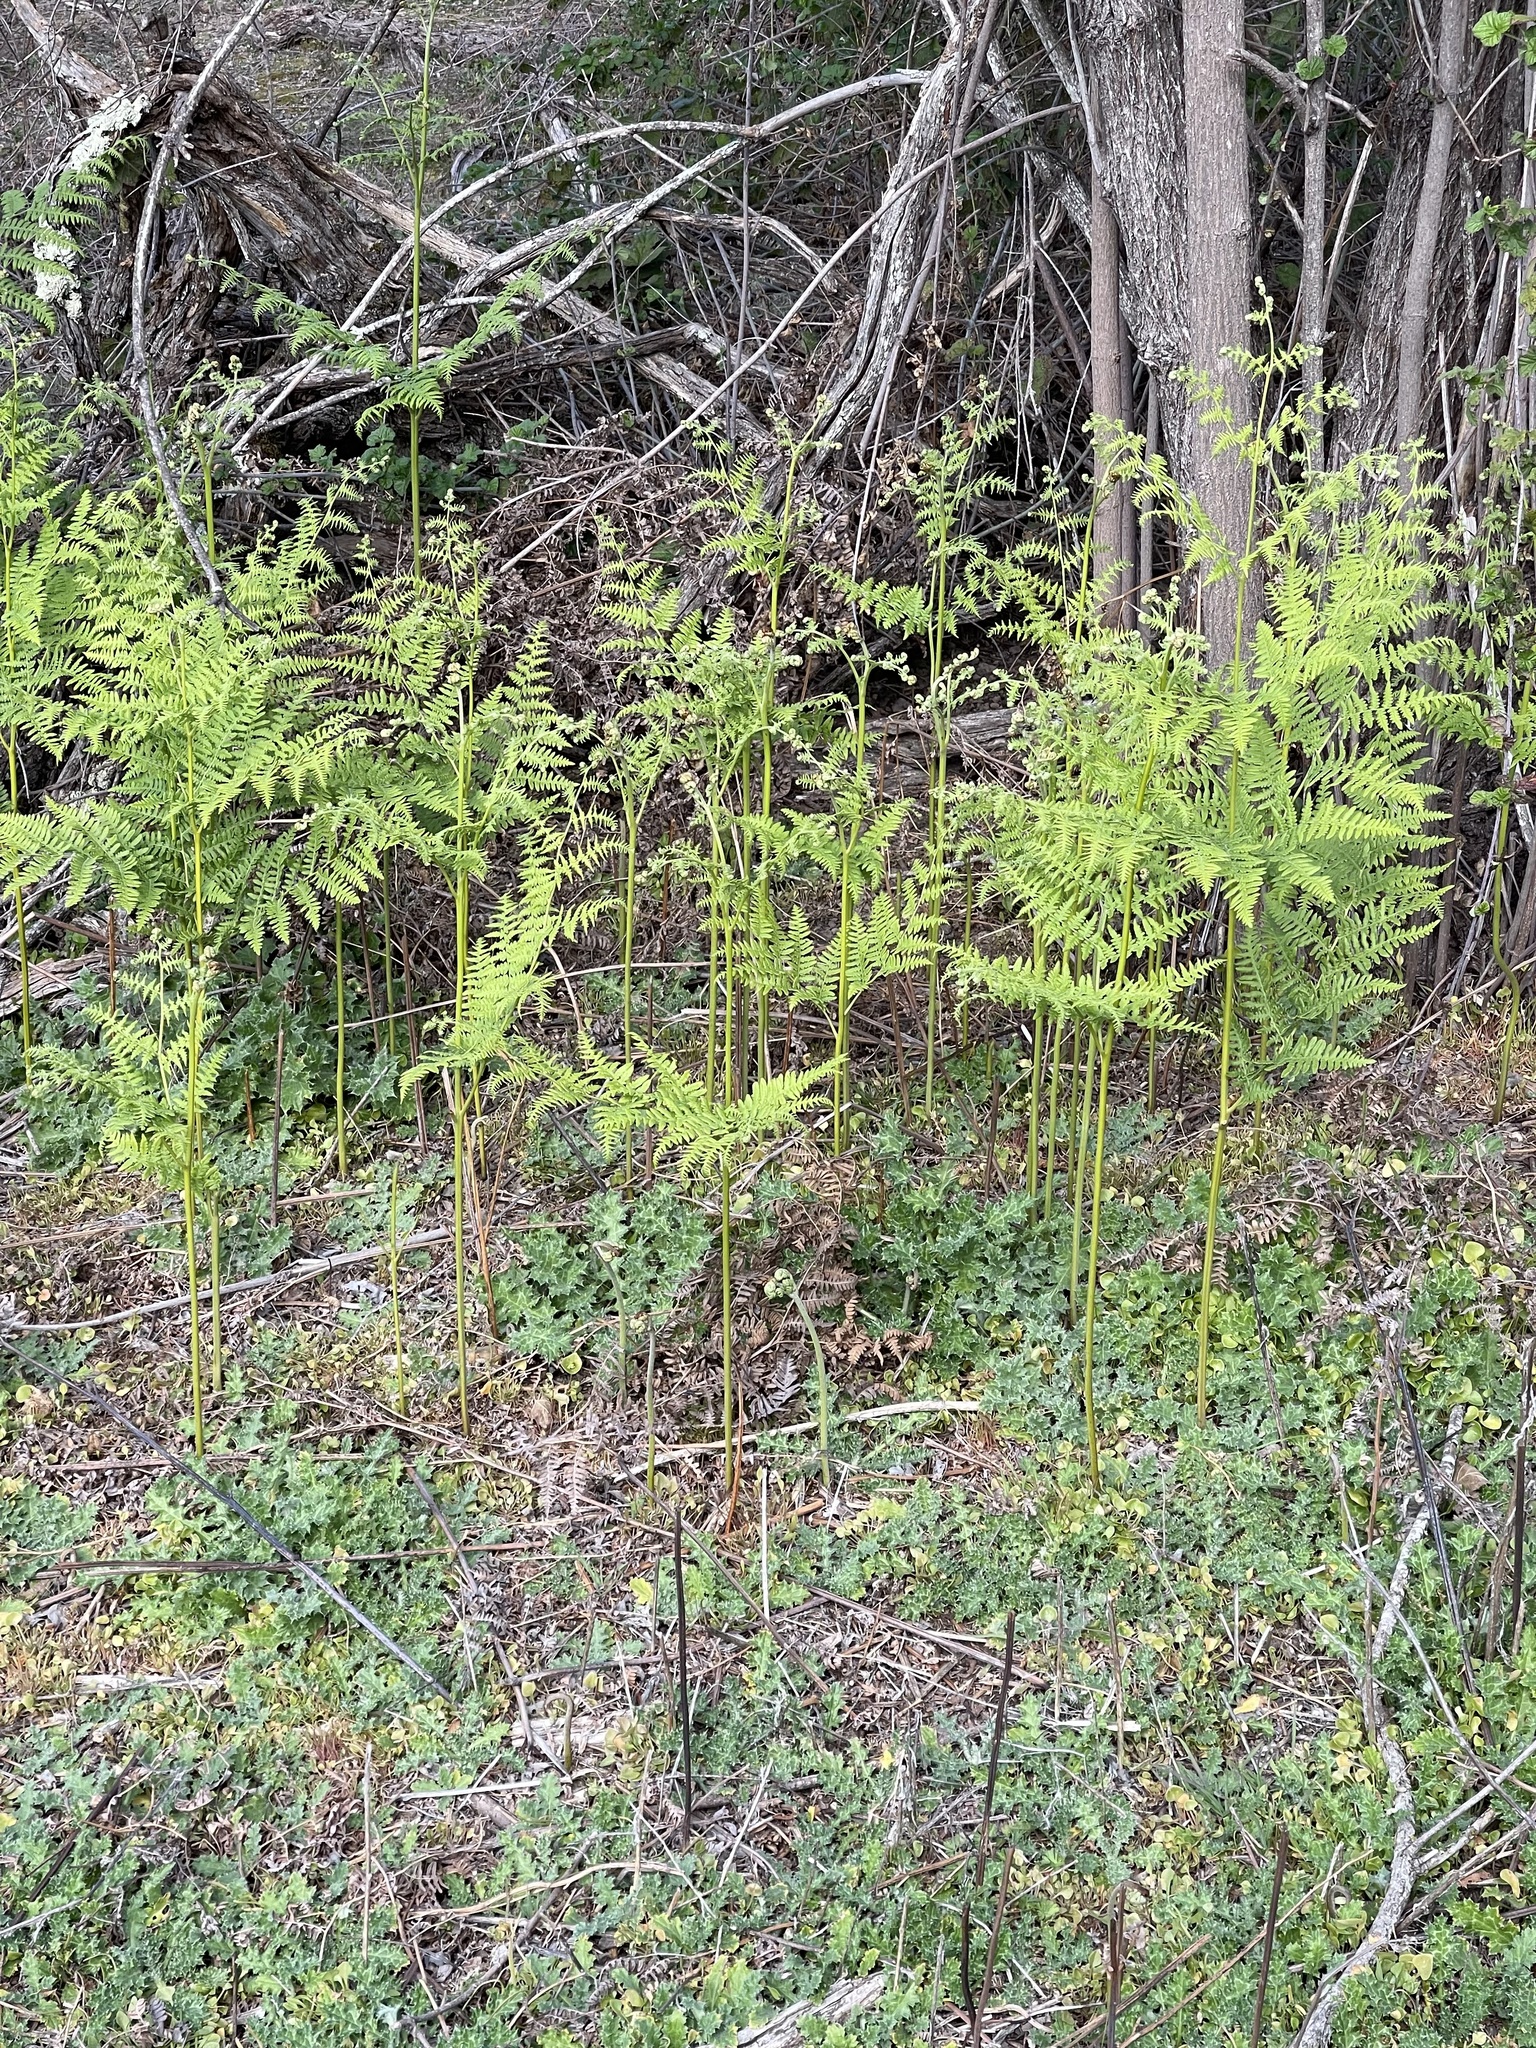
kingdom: Plantae
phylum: Tracheophyta
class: Polypodiopsida
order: Polypodiales
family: Dennstaedtiaceae
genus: Pteridium
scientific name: Pteridium aquilinum
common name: Bracken
